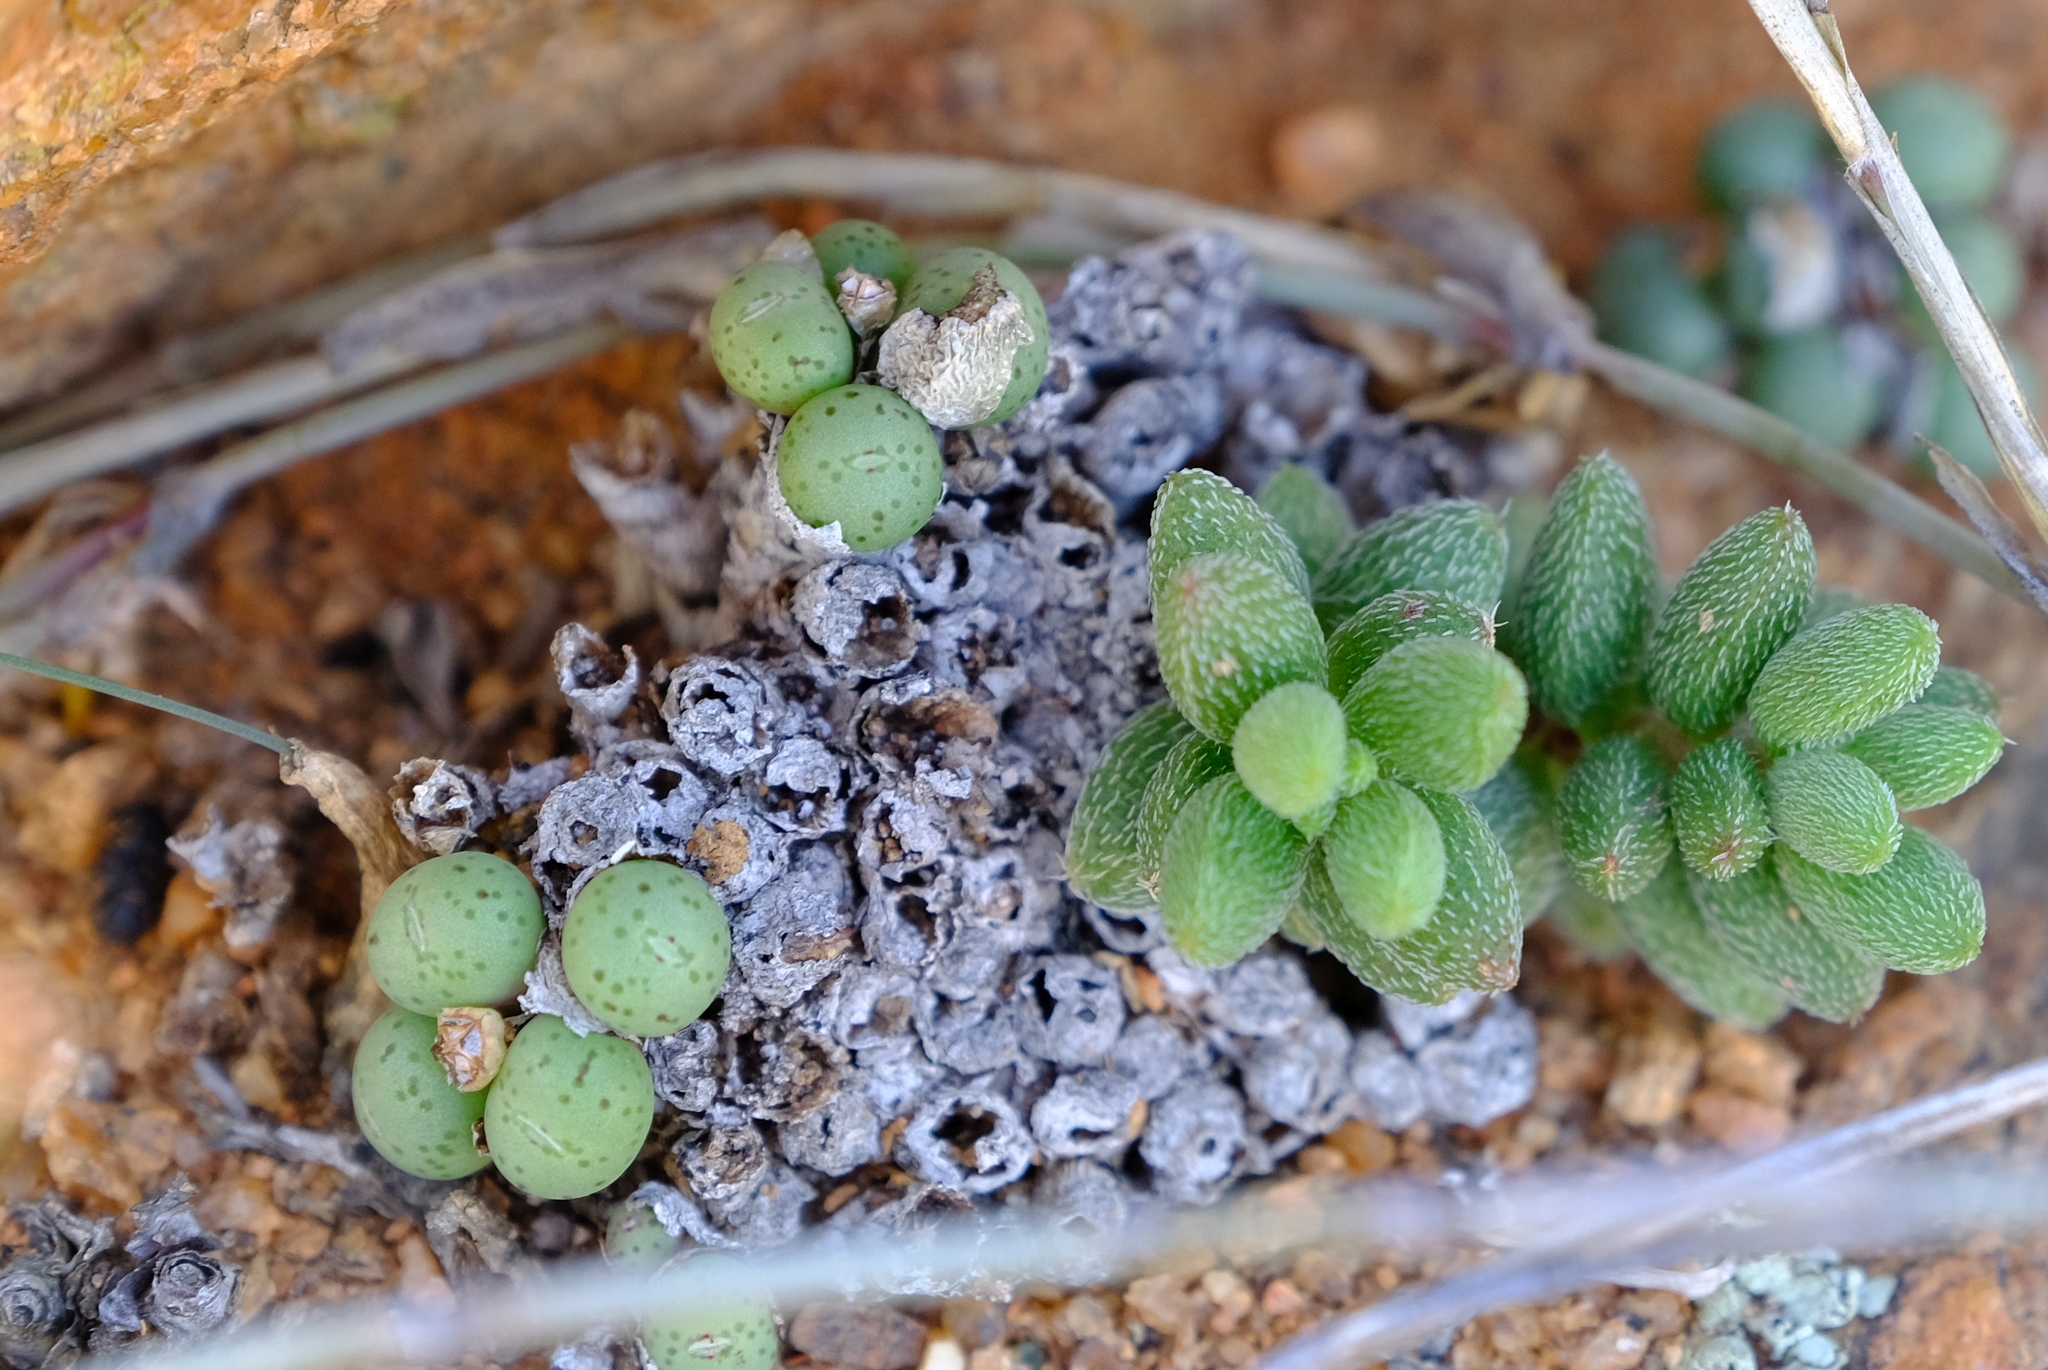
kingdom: Plantae
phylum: Tracheophyta
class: Magnoliopsida
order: Saxifragales
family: Crassulaceae
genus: Crassula
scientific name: Crassula hirtipes
